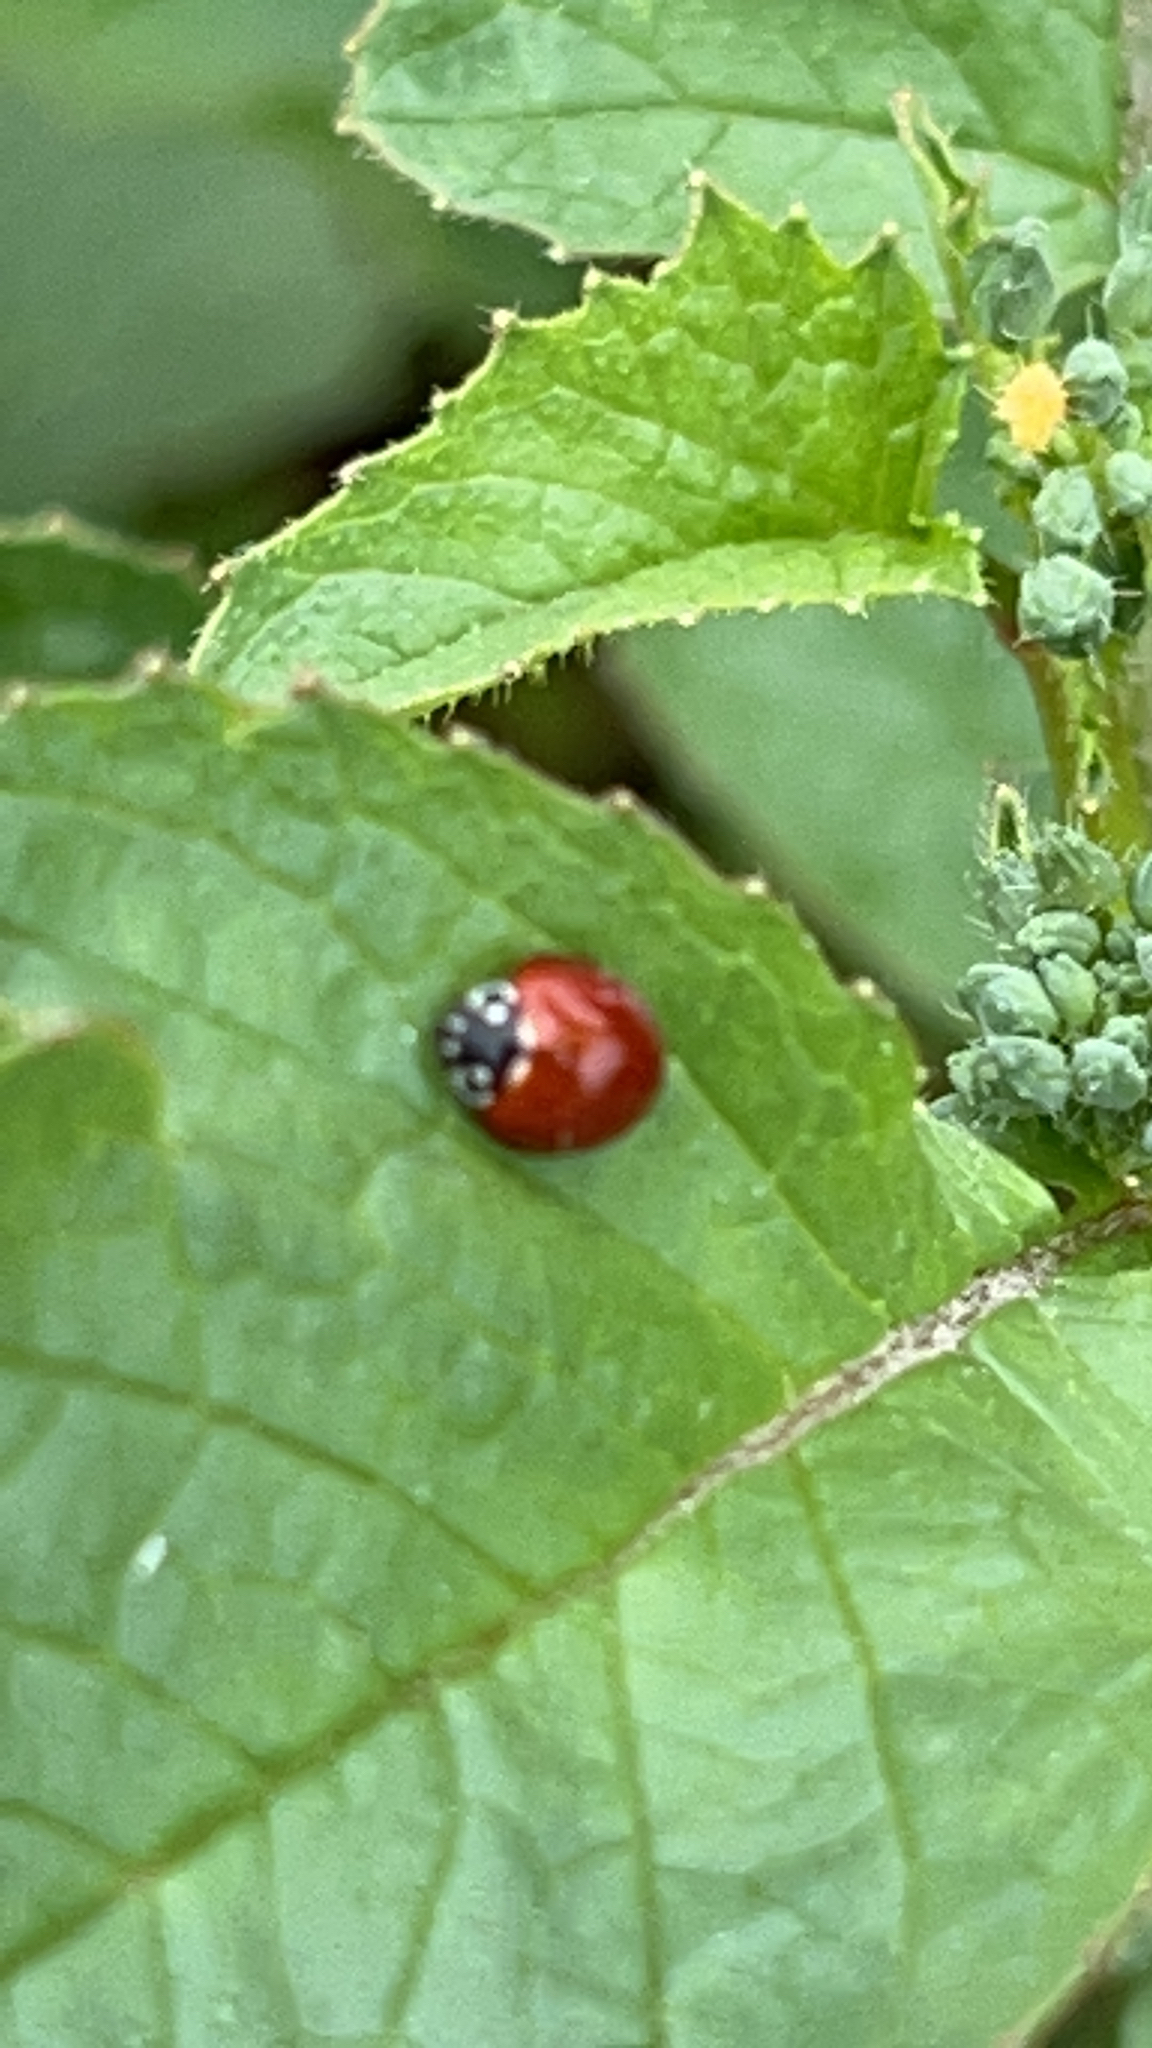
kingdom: Animalia
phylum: Arthropoda
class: Insecta
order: Coleoptera
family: Coccinellidae
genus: Cycloneda
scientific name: Cycloneda sanguinea
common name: Ladybird beetle
